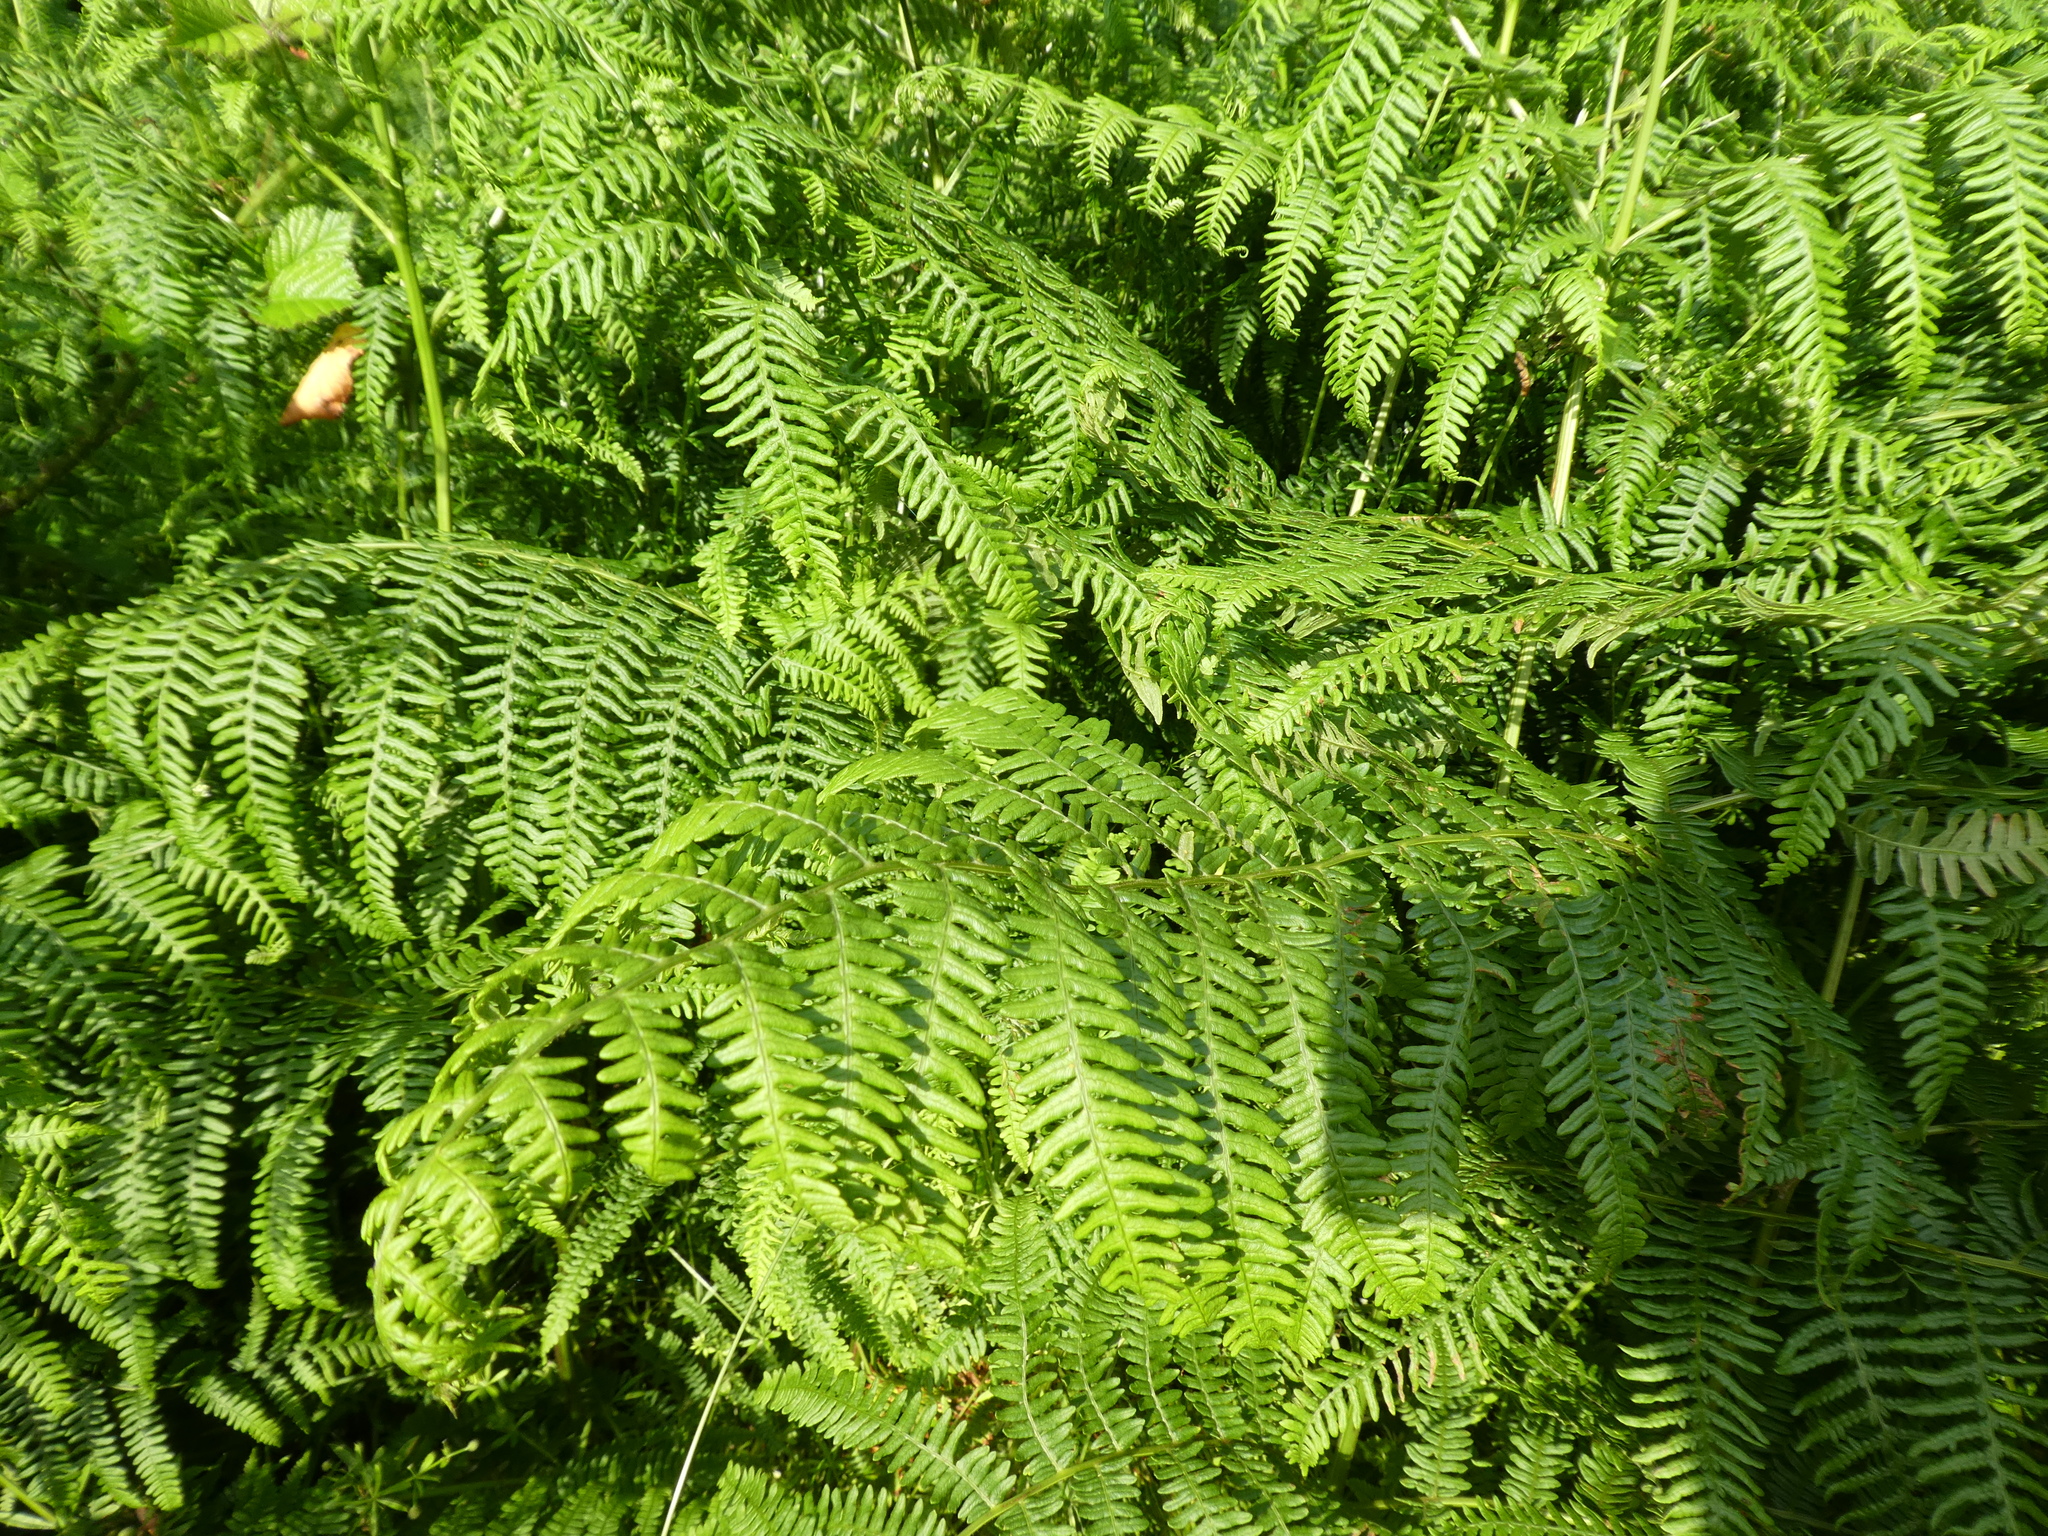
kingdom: Plantae
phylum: Tracheophyta
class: Polypodiopsida
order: Polypodiales
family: Dennstaedtiaceae
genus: Pteridium
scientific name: Pteridium aquilinum
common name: Bracken
